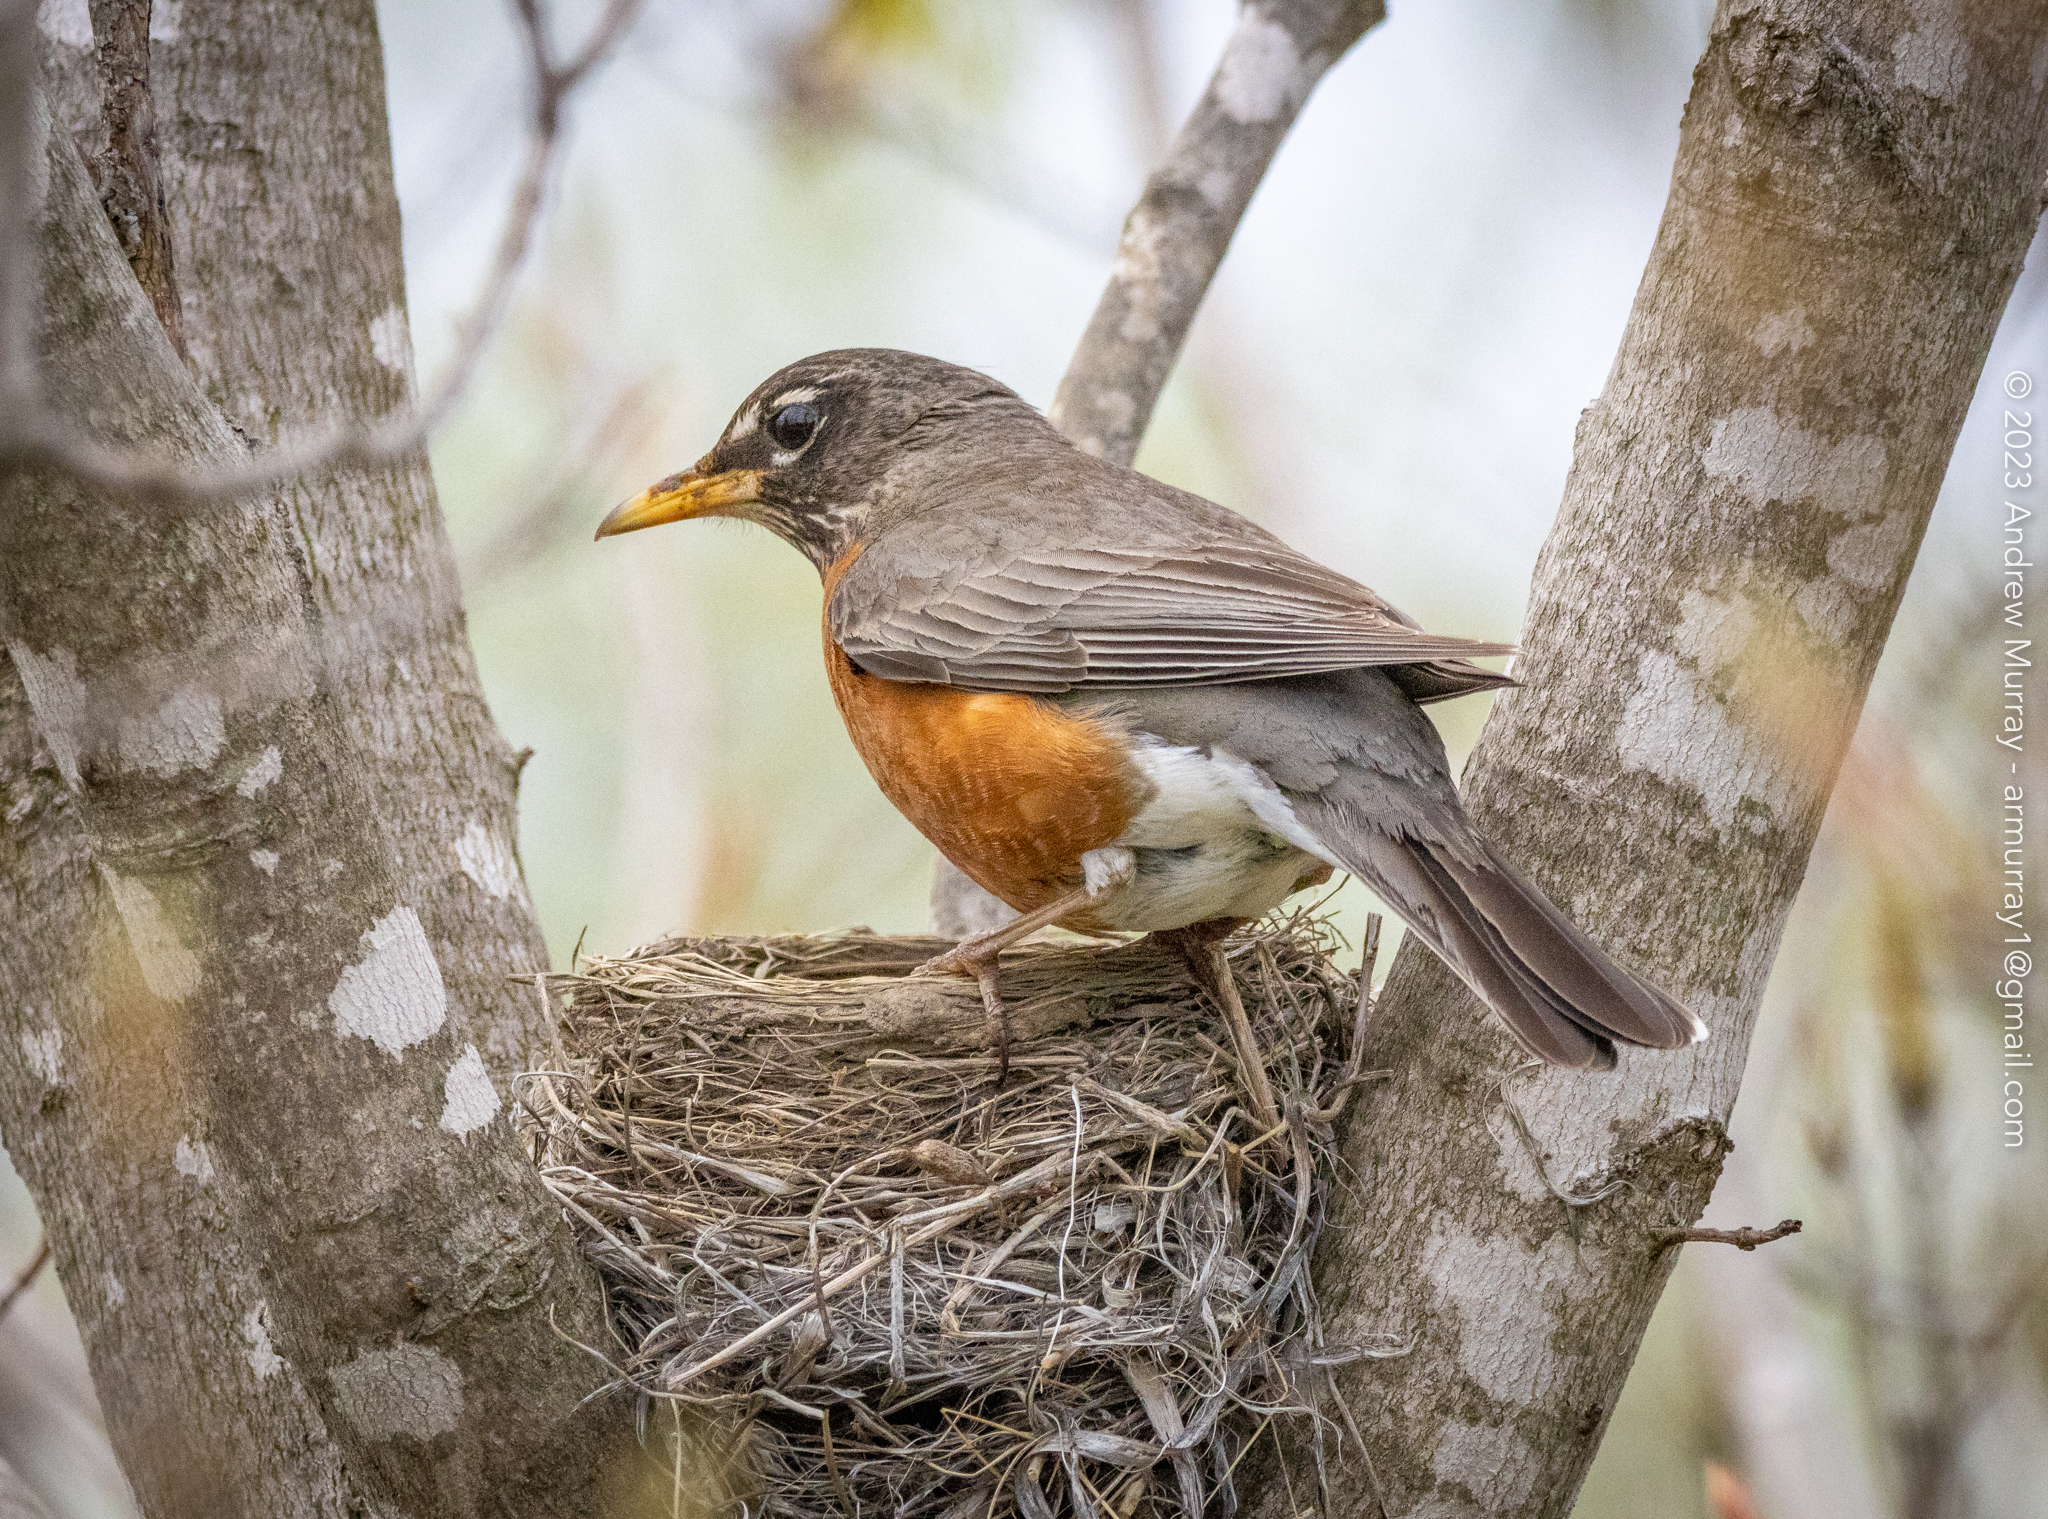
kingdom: Animalia
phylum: Chordata
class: Aves
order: Passeriformes
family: Turdidae
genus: Turdus
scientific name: Turdus migratorius
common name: American robin
